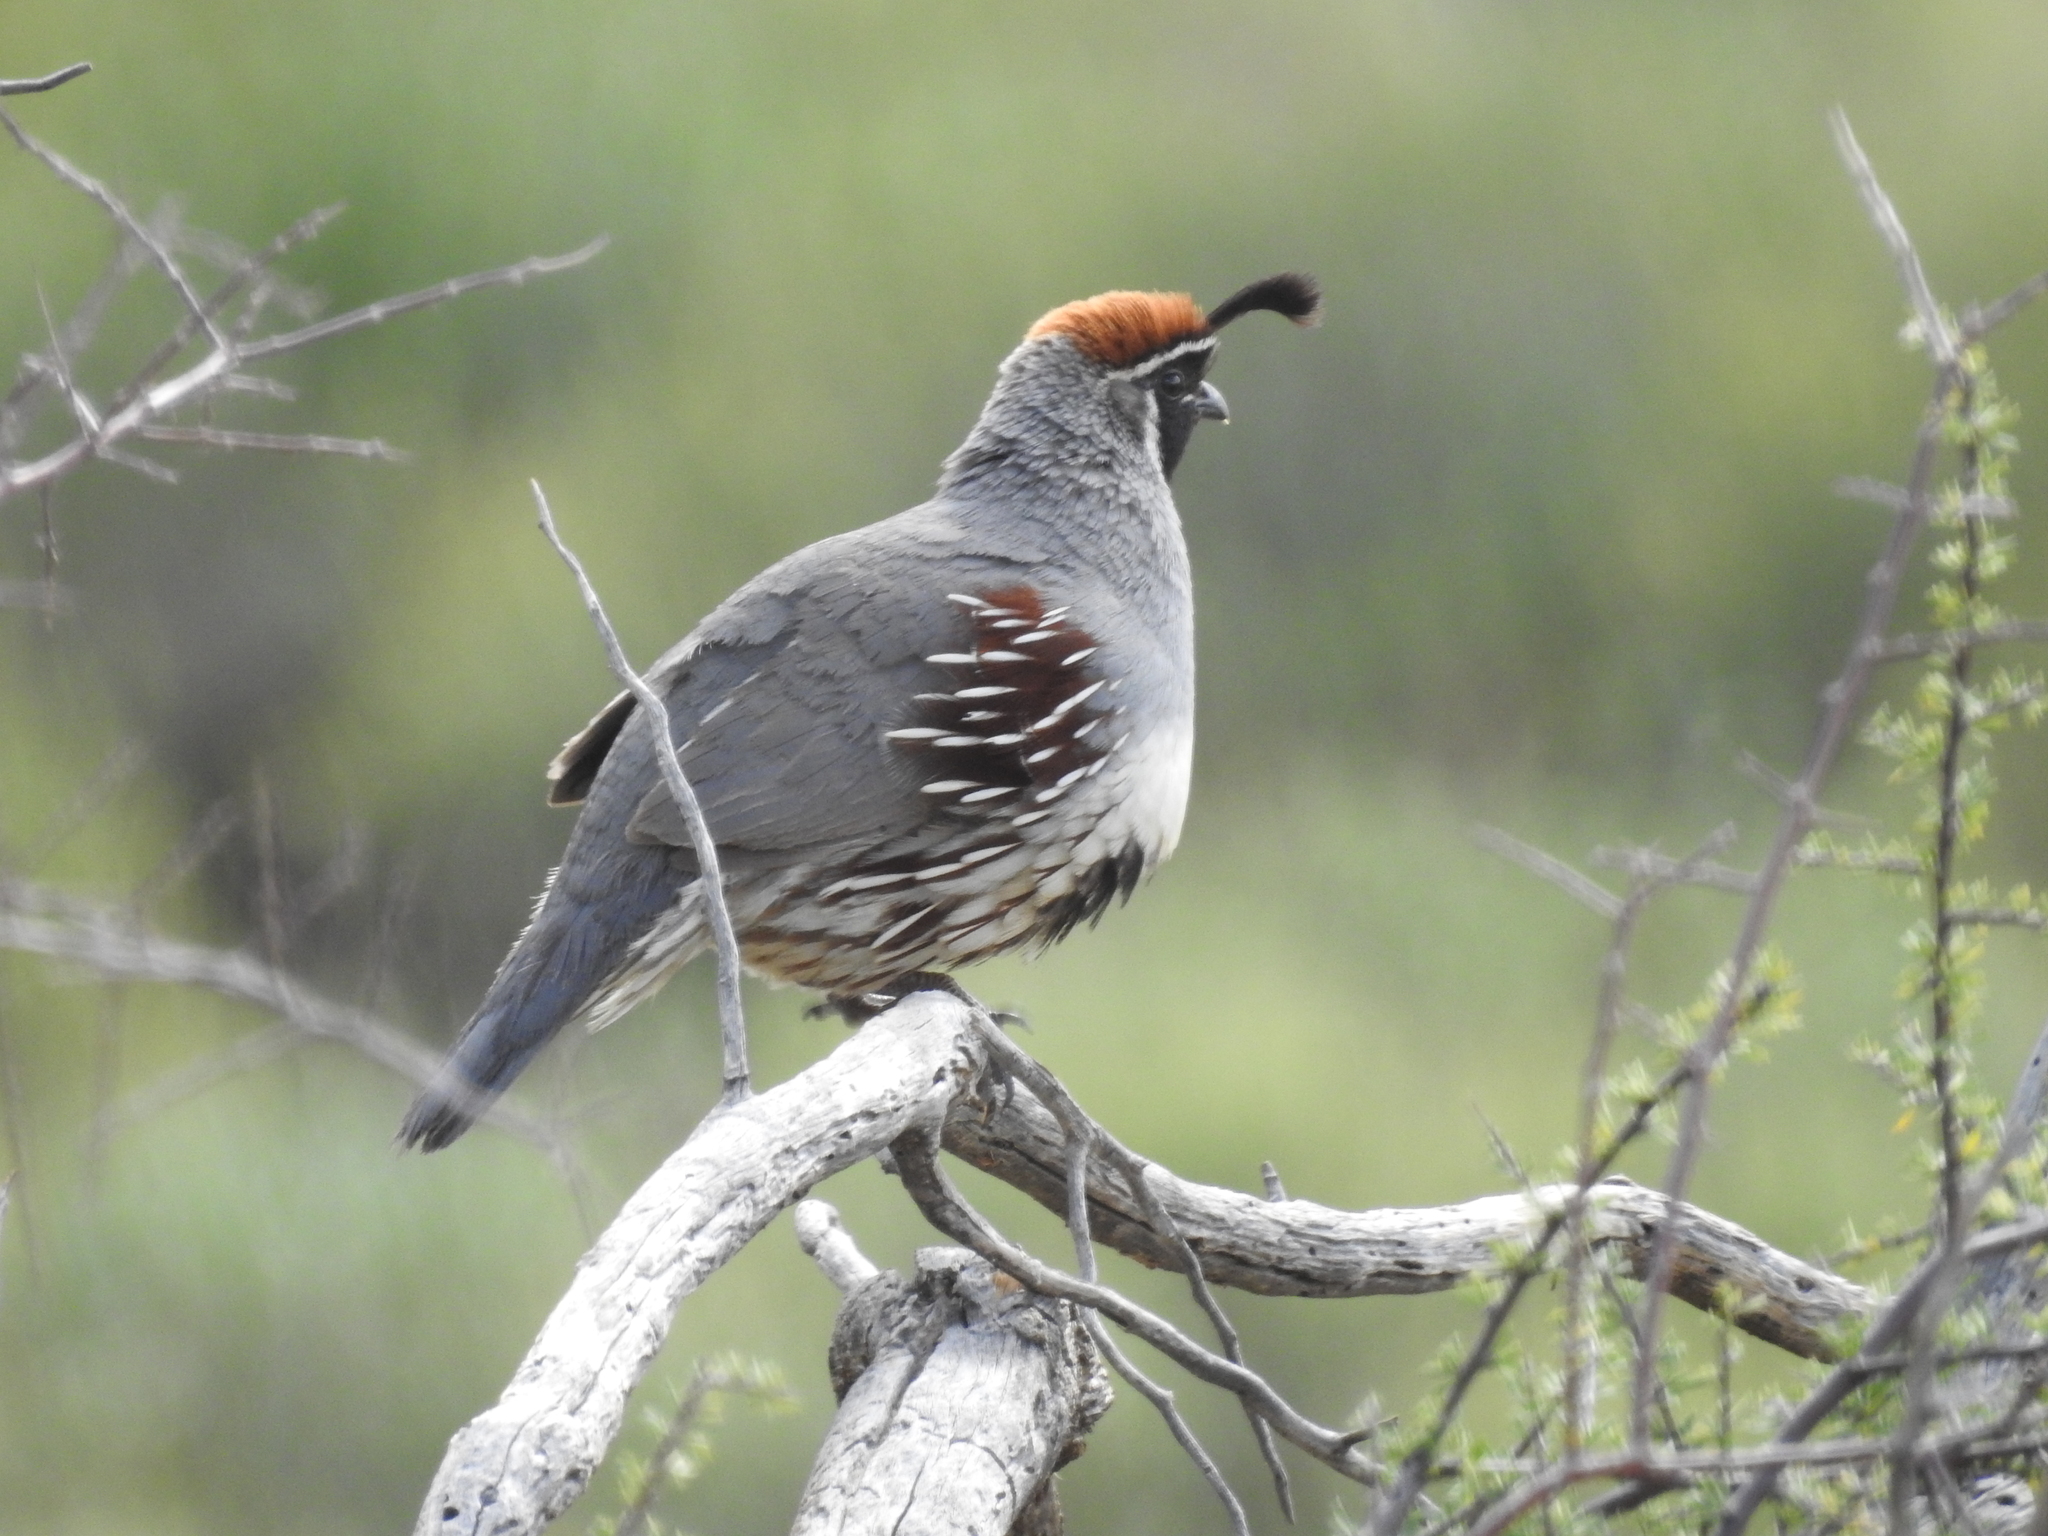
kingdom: Animalia
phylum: Chordata
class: Aves
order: Galliformes
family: Odontophoridae
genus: Callipepla
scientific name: Callipepla gambelii
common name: Gambel's quail
